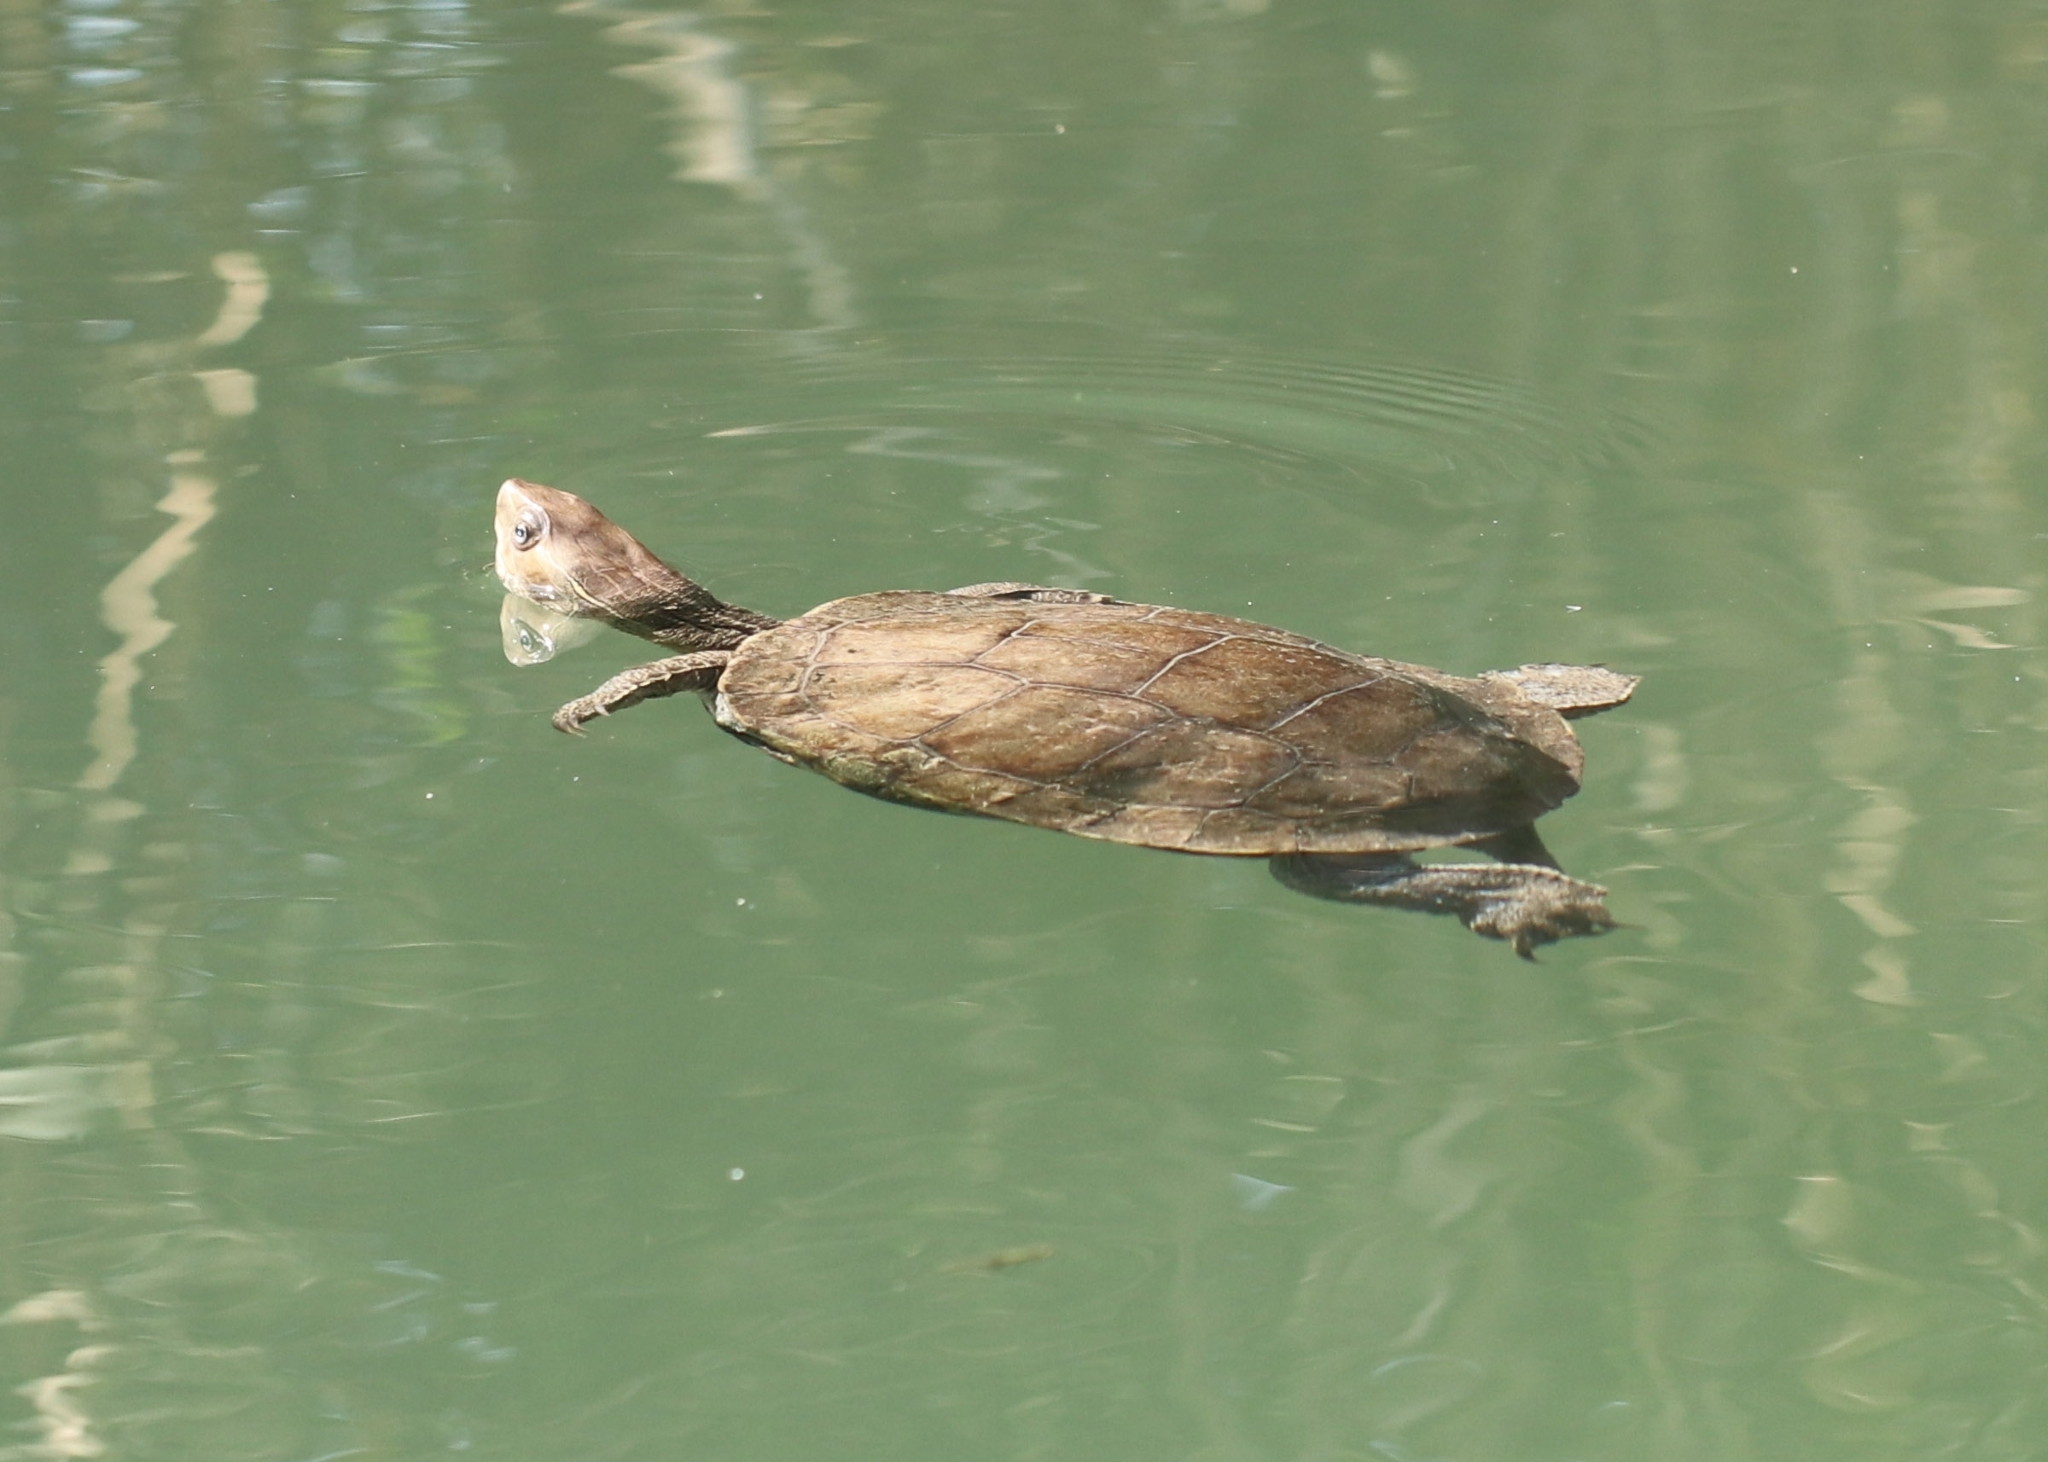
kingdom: Animalia
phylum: Chordata
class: Testudines
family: Geoemydidae
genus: Mauremys
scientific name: Mauremys rivulata
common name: Western caspian turtle
